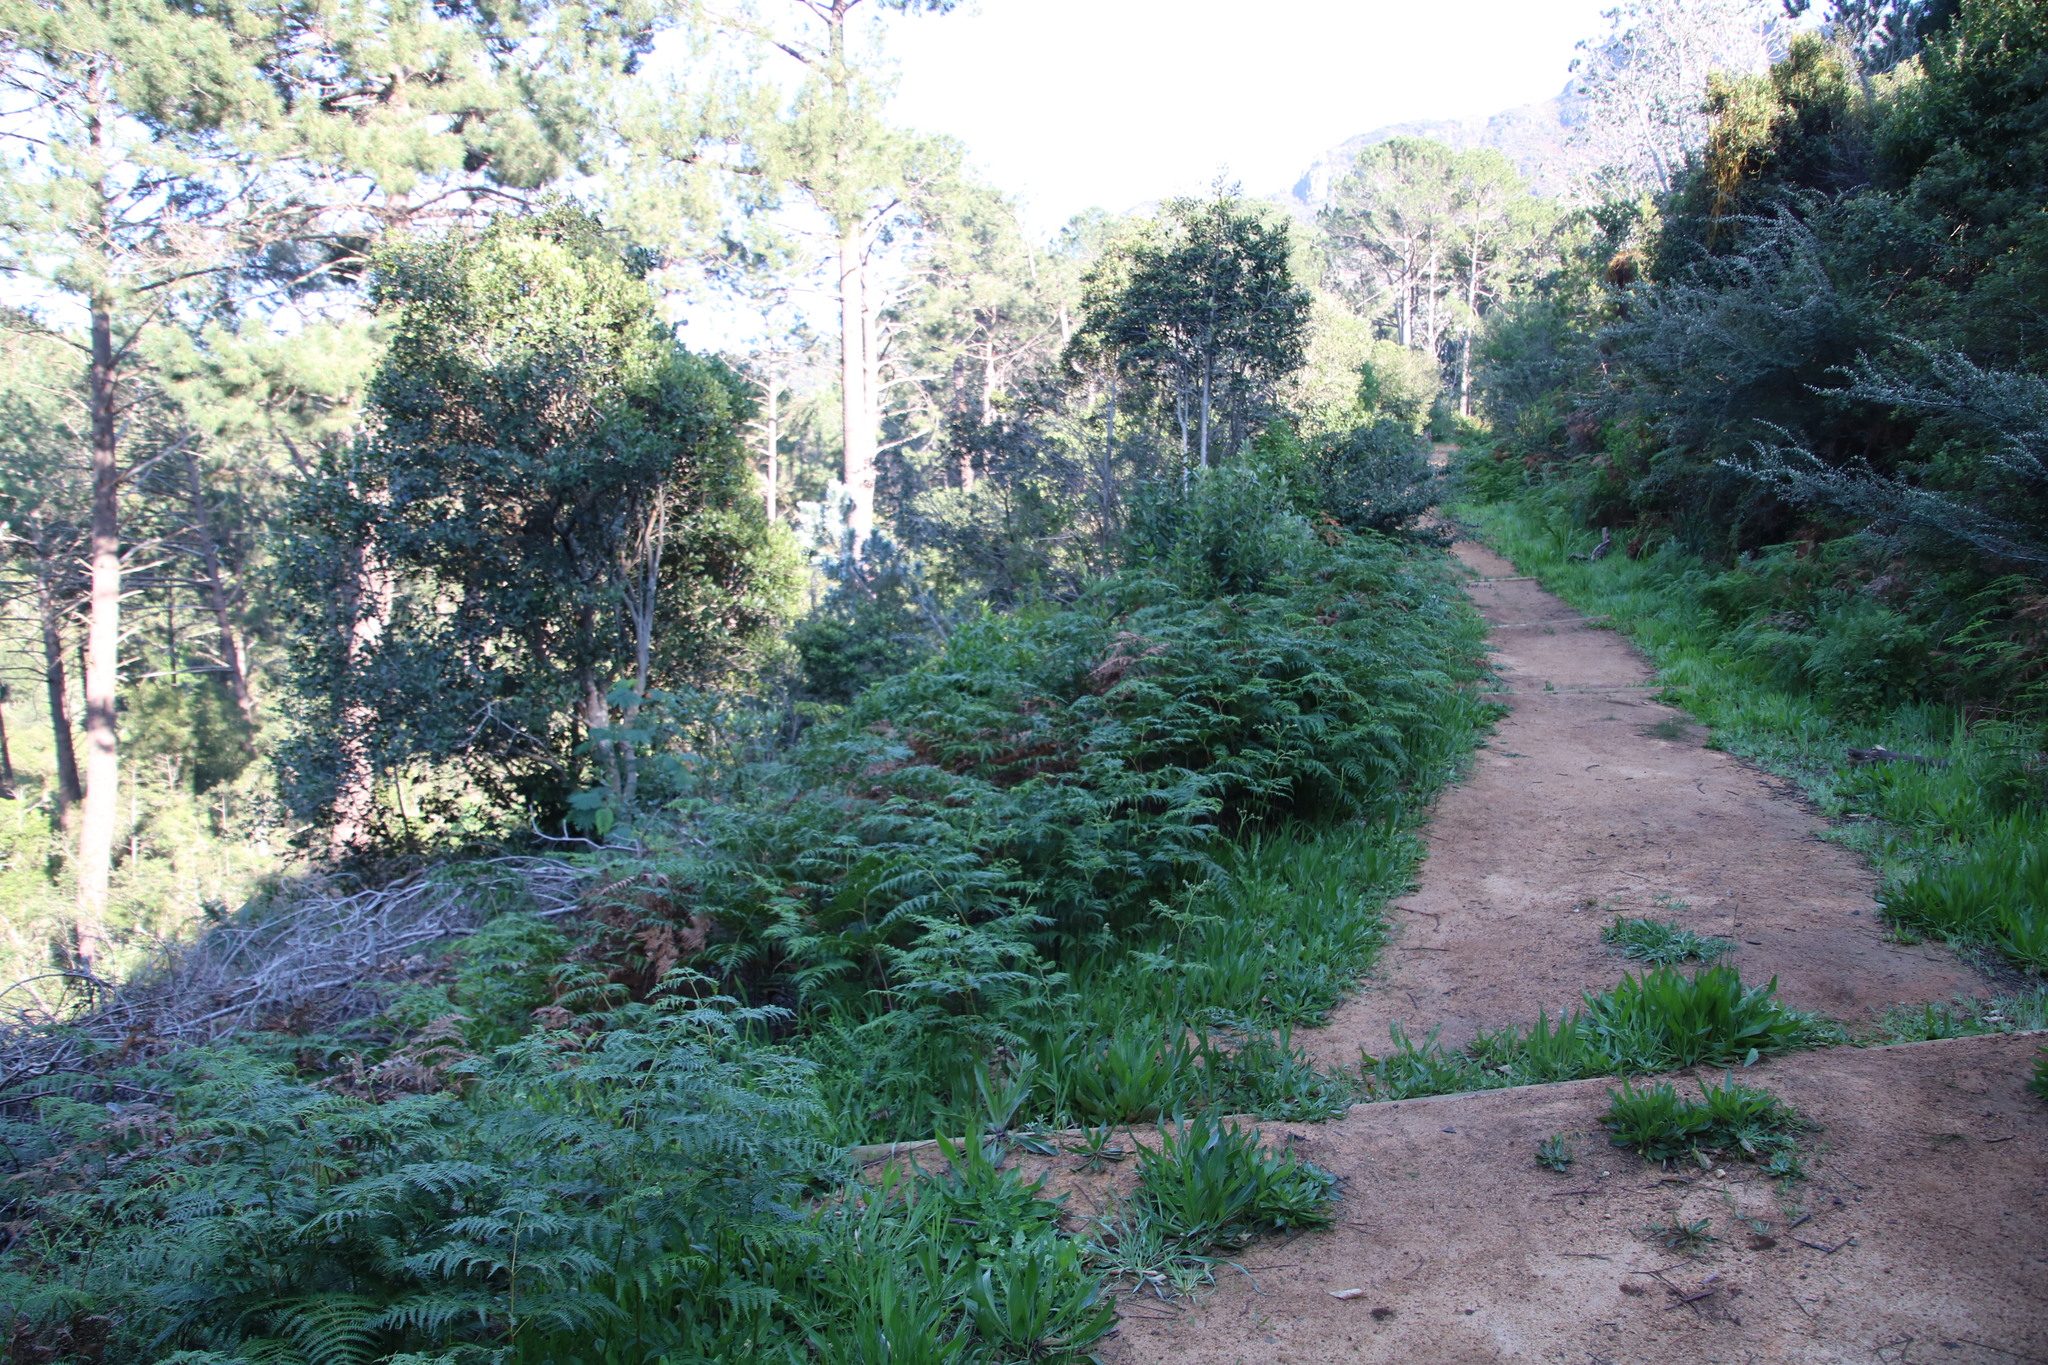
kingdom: Plantae
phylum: Tracheophyta
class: Polypodiopsida
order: Polypodiales
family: Dennstaedtiaceae
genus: Pteridium
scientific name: Pteridium aquilinum
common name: Bracken
